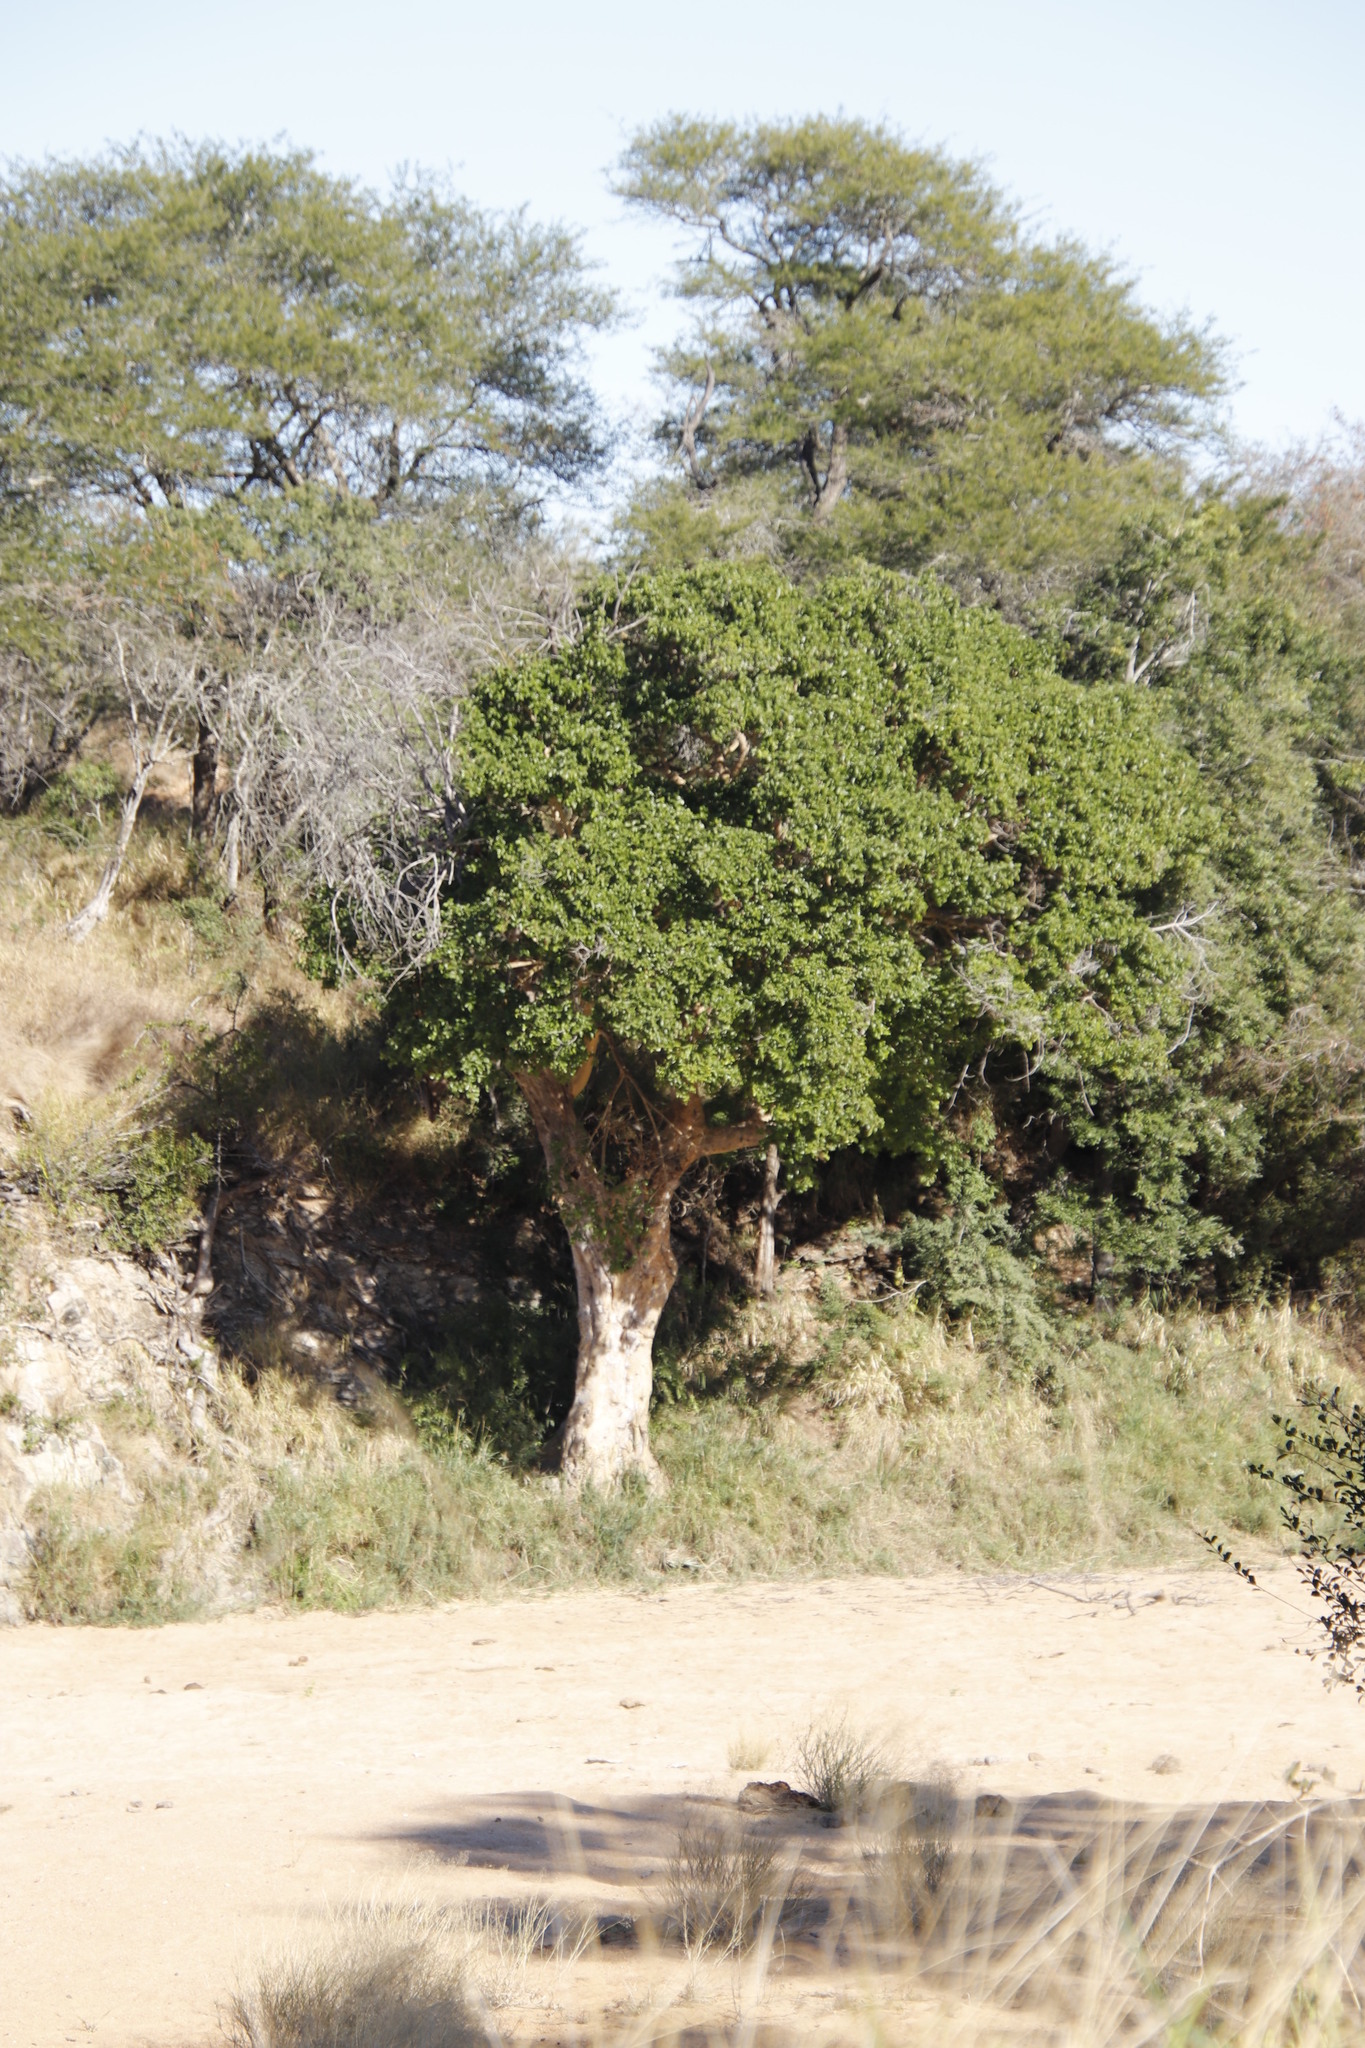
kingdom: Plantae
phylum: Tracheophyta
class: Magnoliopsida
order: Rosales
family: Moraceae
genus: Ficus
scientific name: Ficus sycomorus
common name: Sycomore
